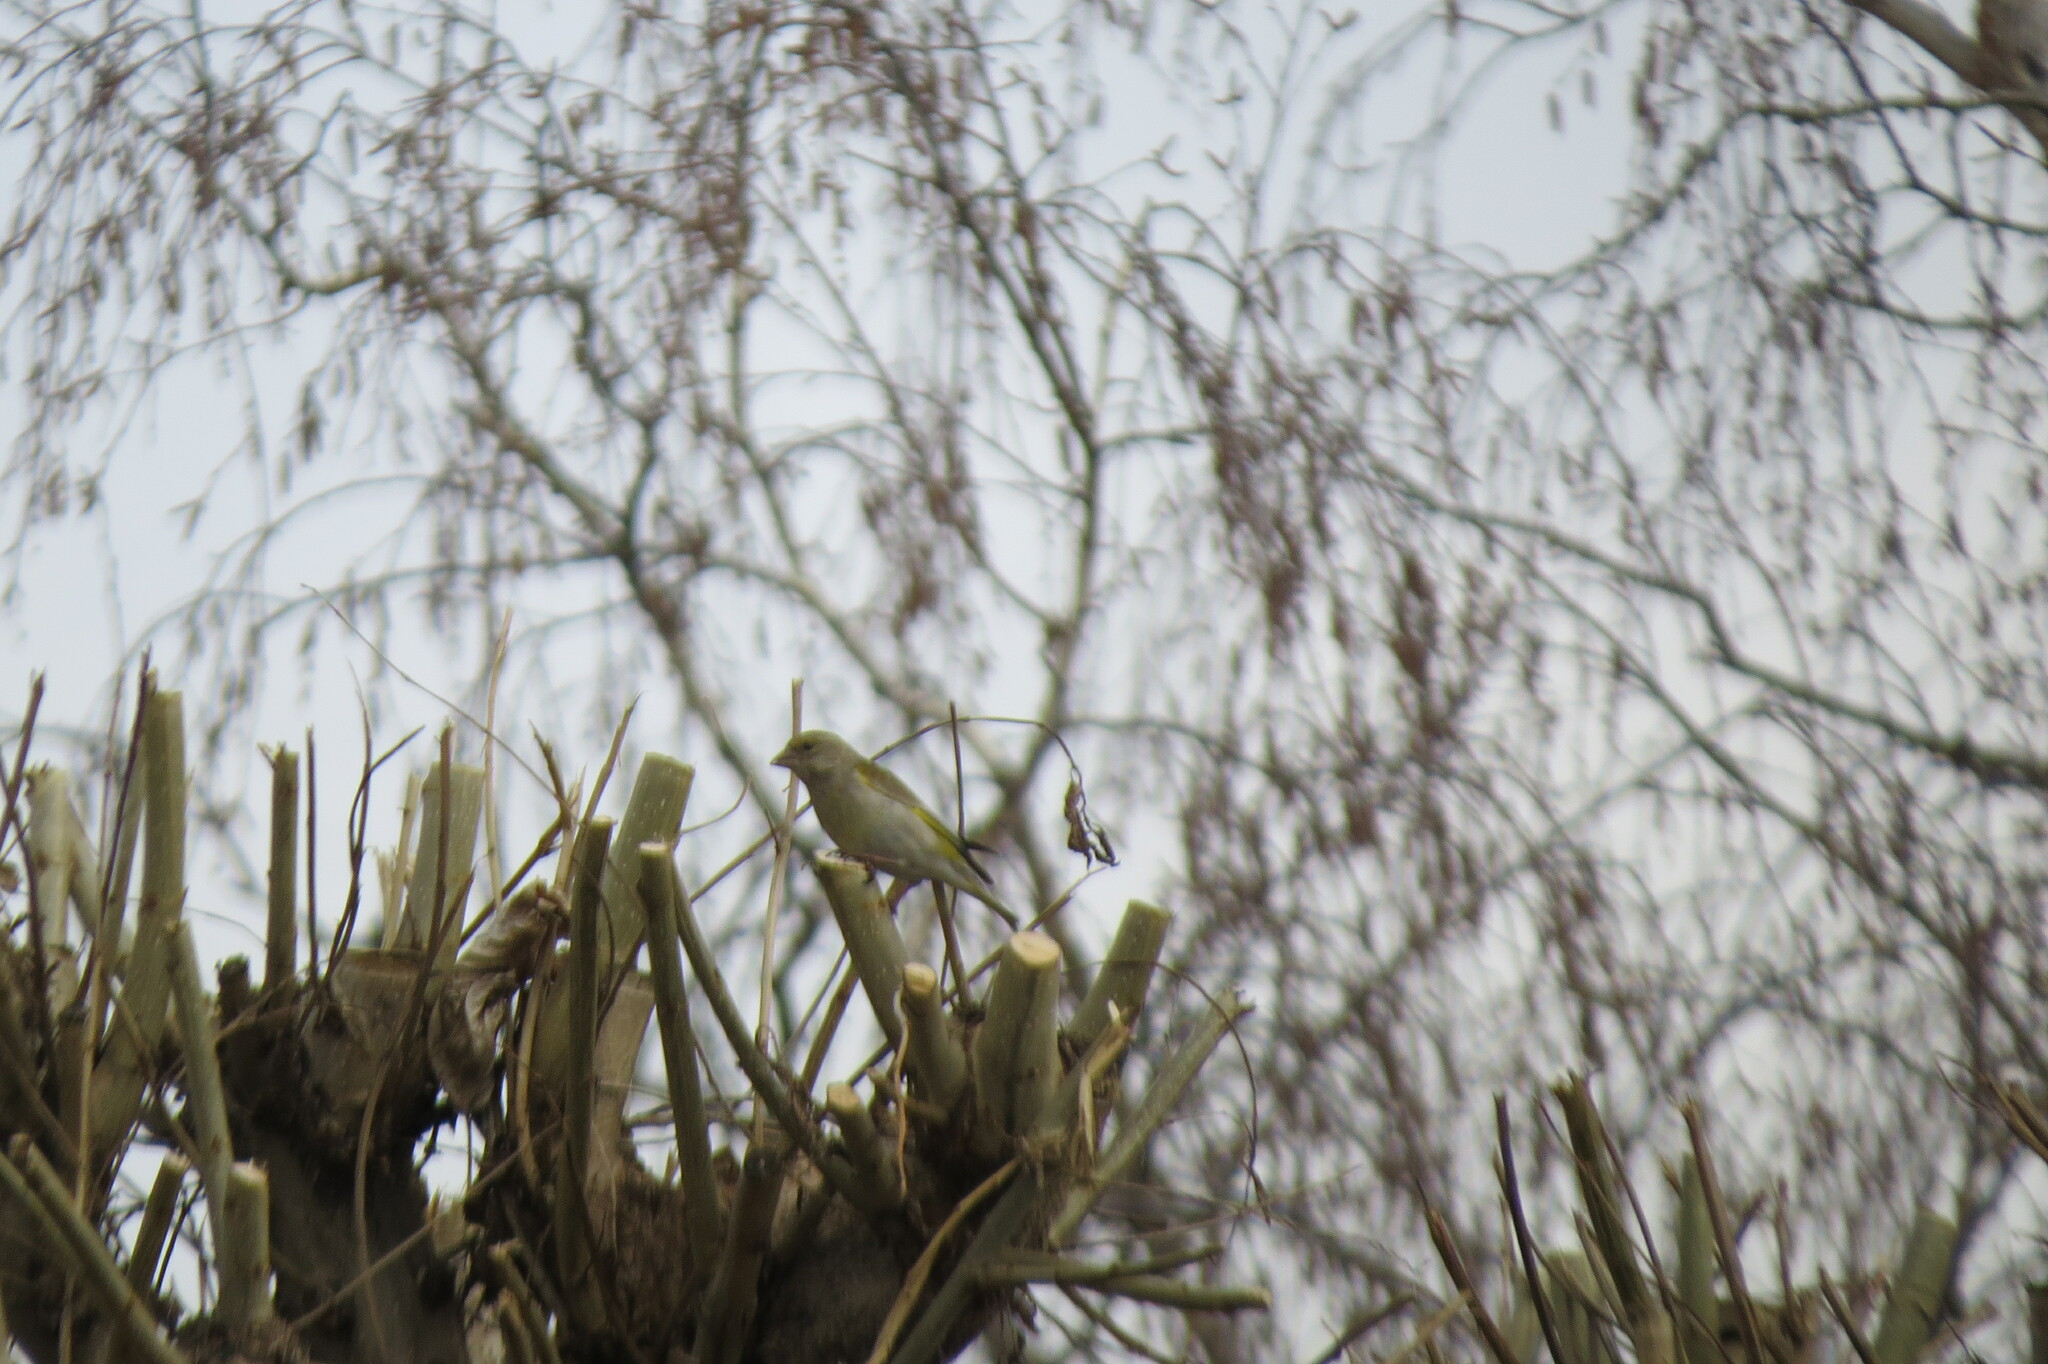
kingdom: Plantae
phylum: Tracheophyta
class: Liliopsida
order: Poales
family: Poaceae
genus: Chloris
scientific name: Chloris chloris
